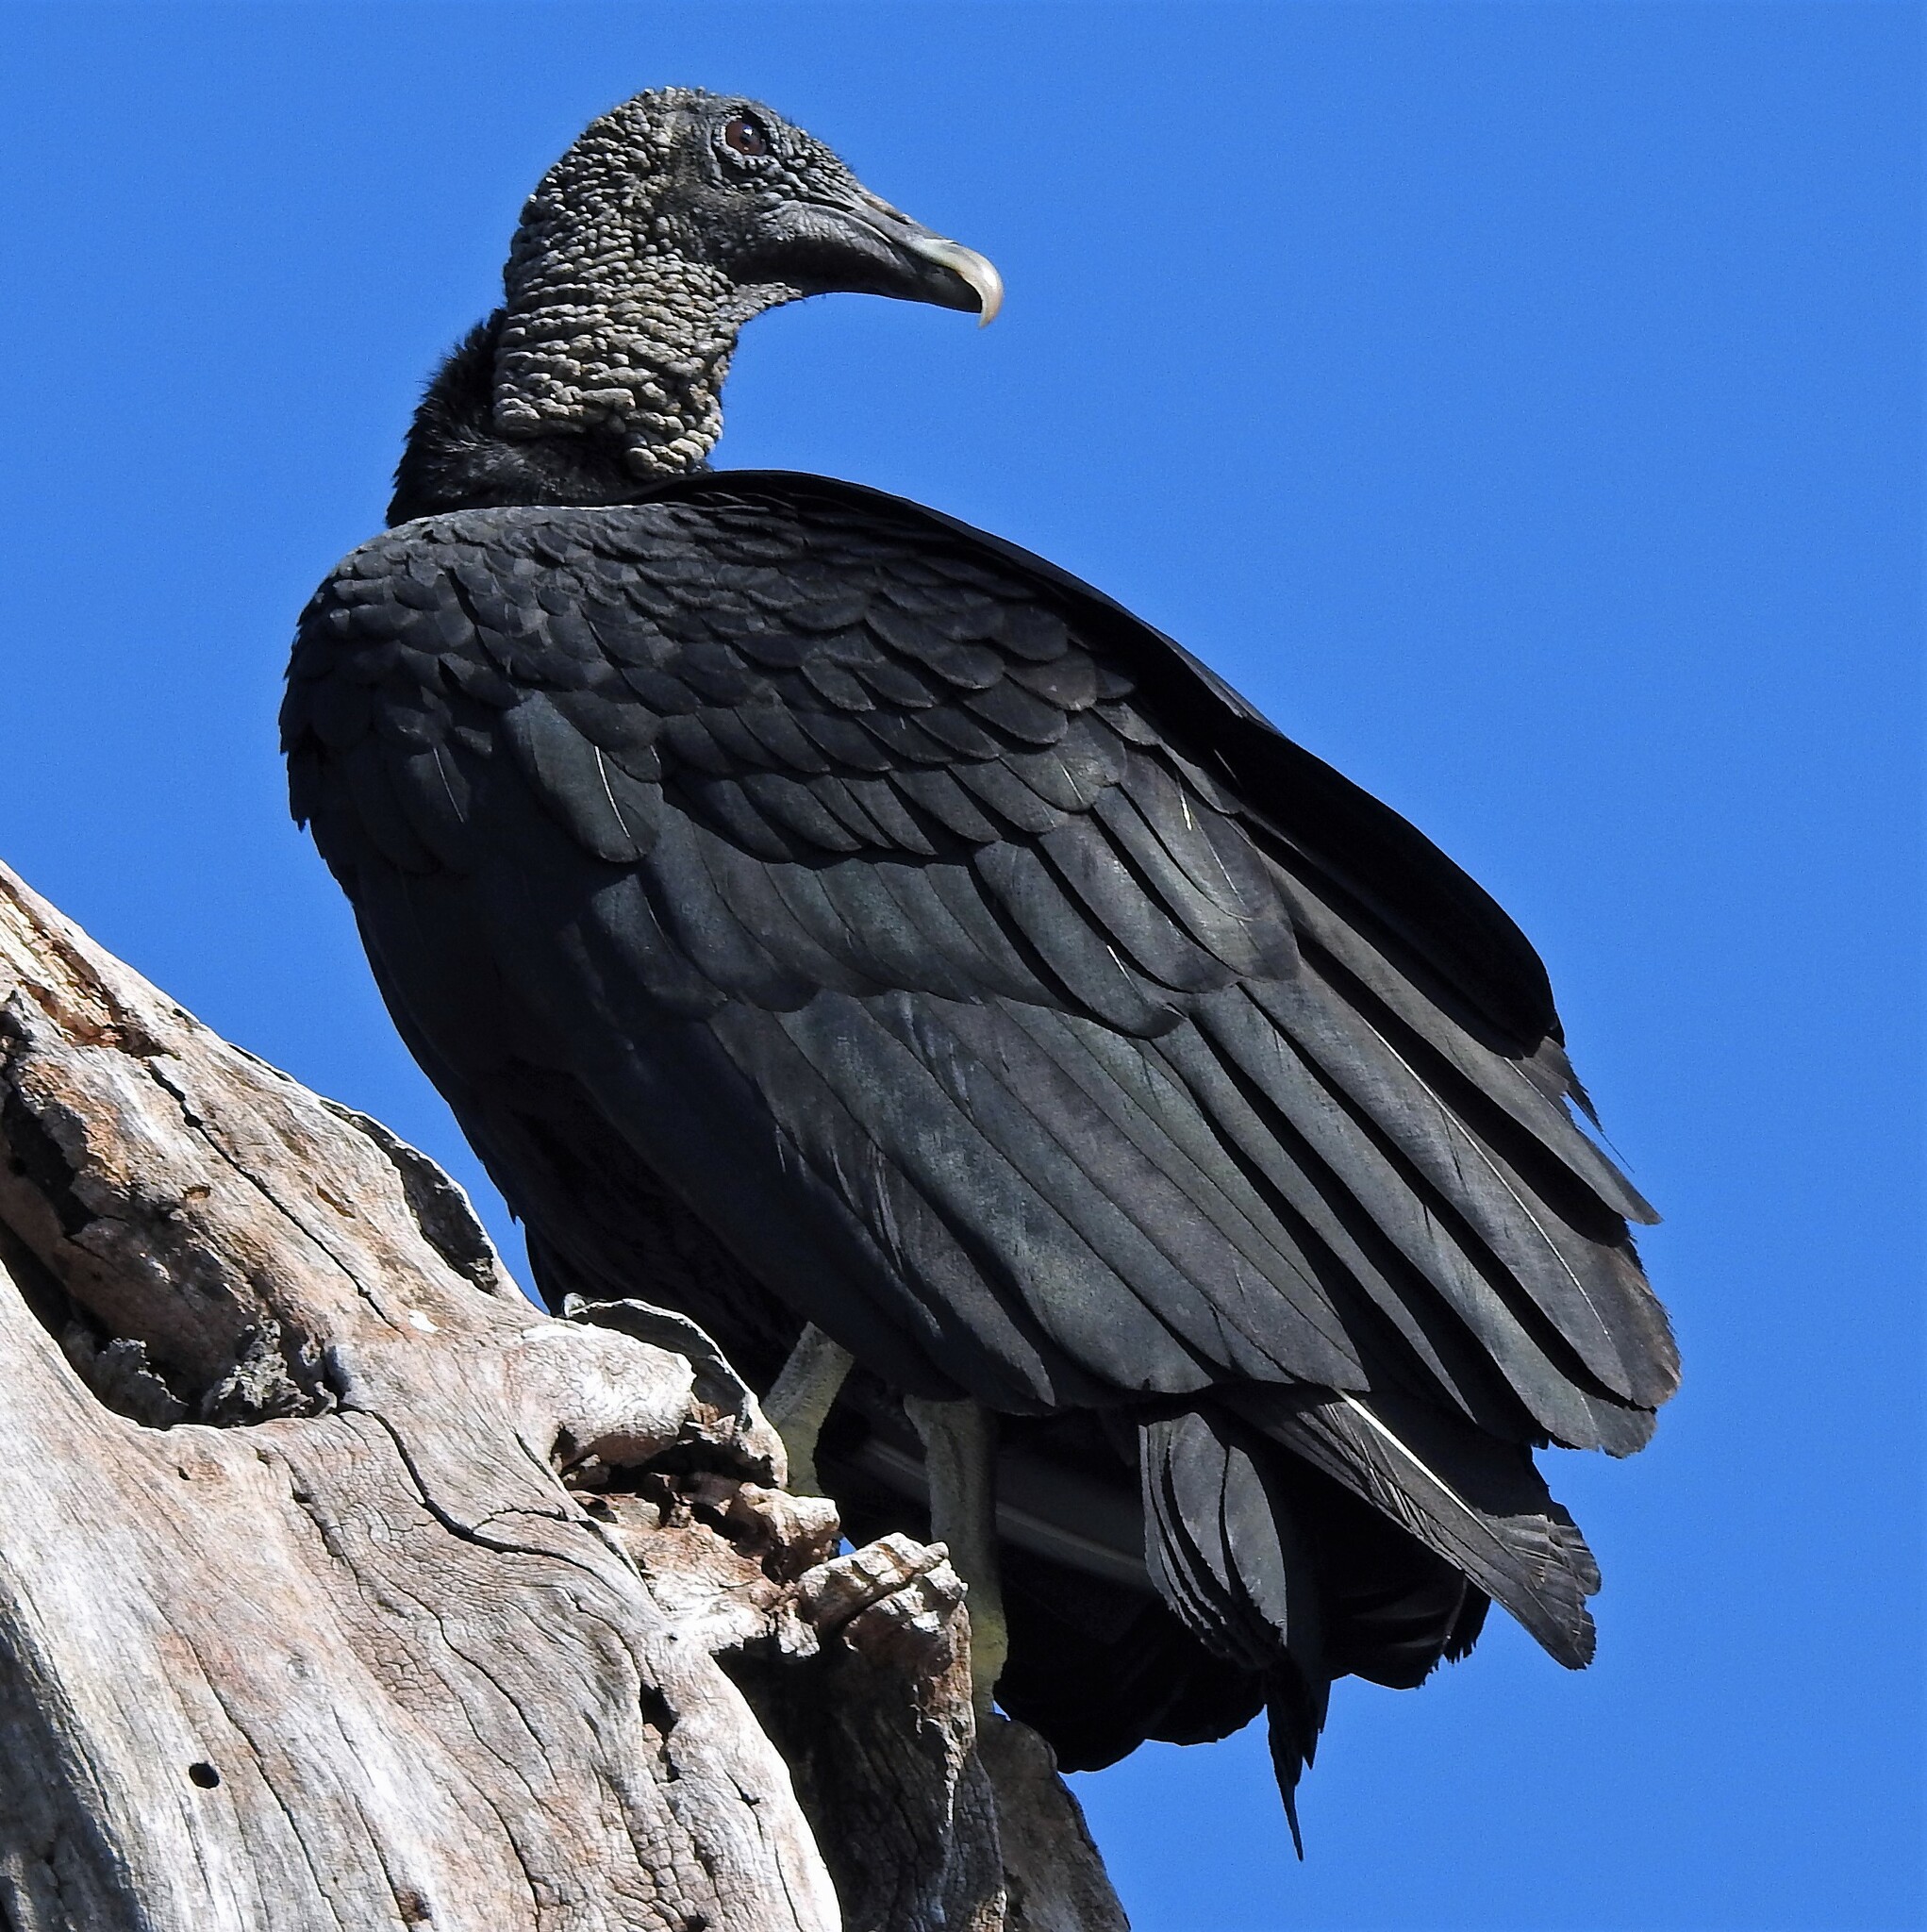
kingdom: Animalia
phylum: Chordata
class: Aves
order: Accipitriformes
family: Cathartidae
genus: Coragyps
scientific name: Coragyps atratus
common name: Black vulture
